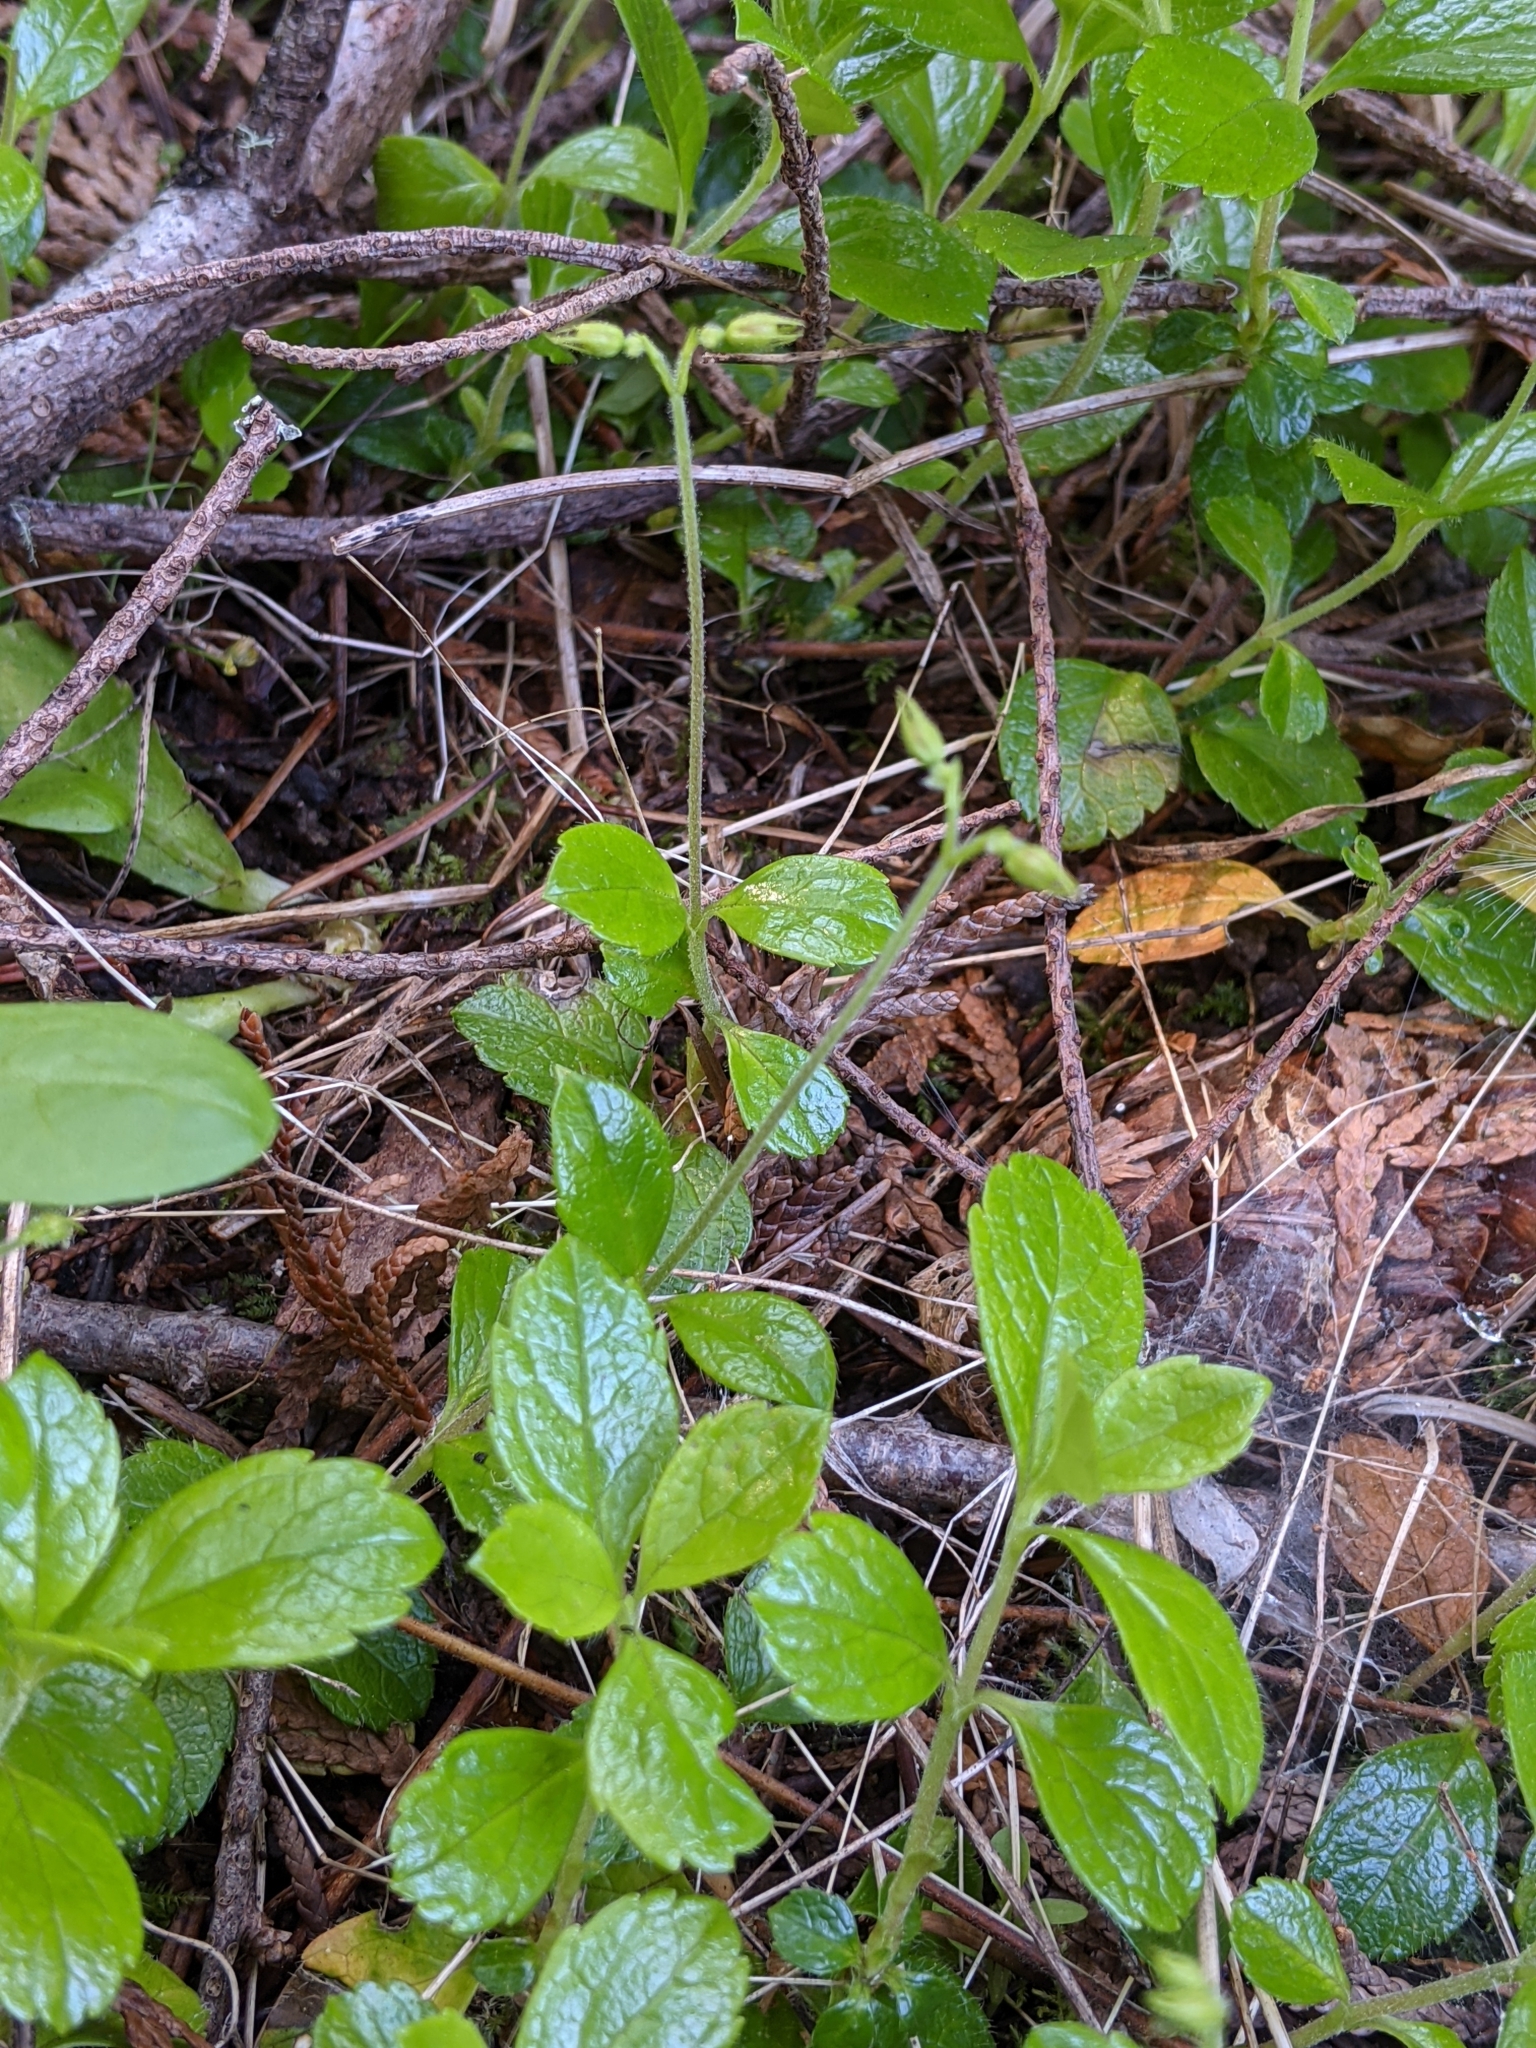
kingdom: Plantae
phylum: Tracheophyta
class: Magnoliopsida
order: Dipsacales
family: Caprifoliaceae
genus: Linnaea
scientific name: Linnaea borealis
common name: Twinflower
